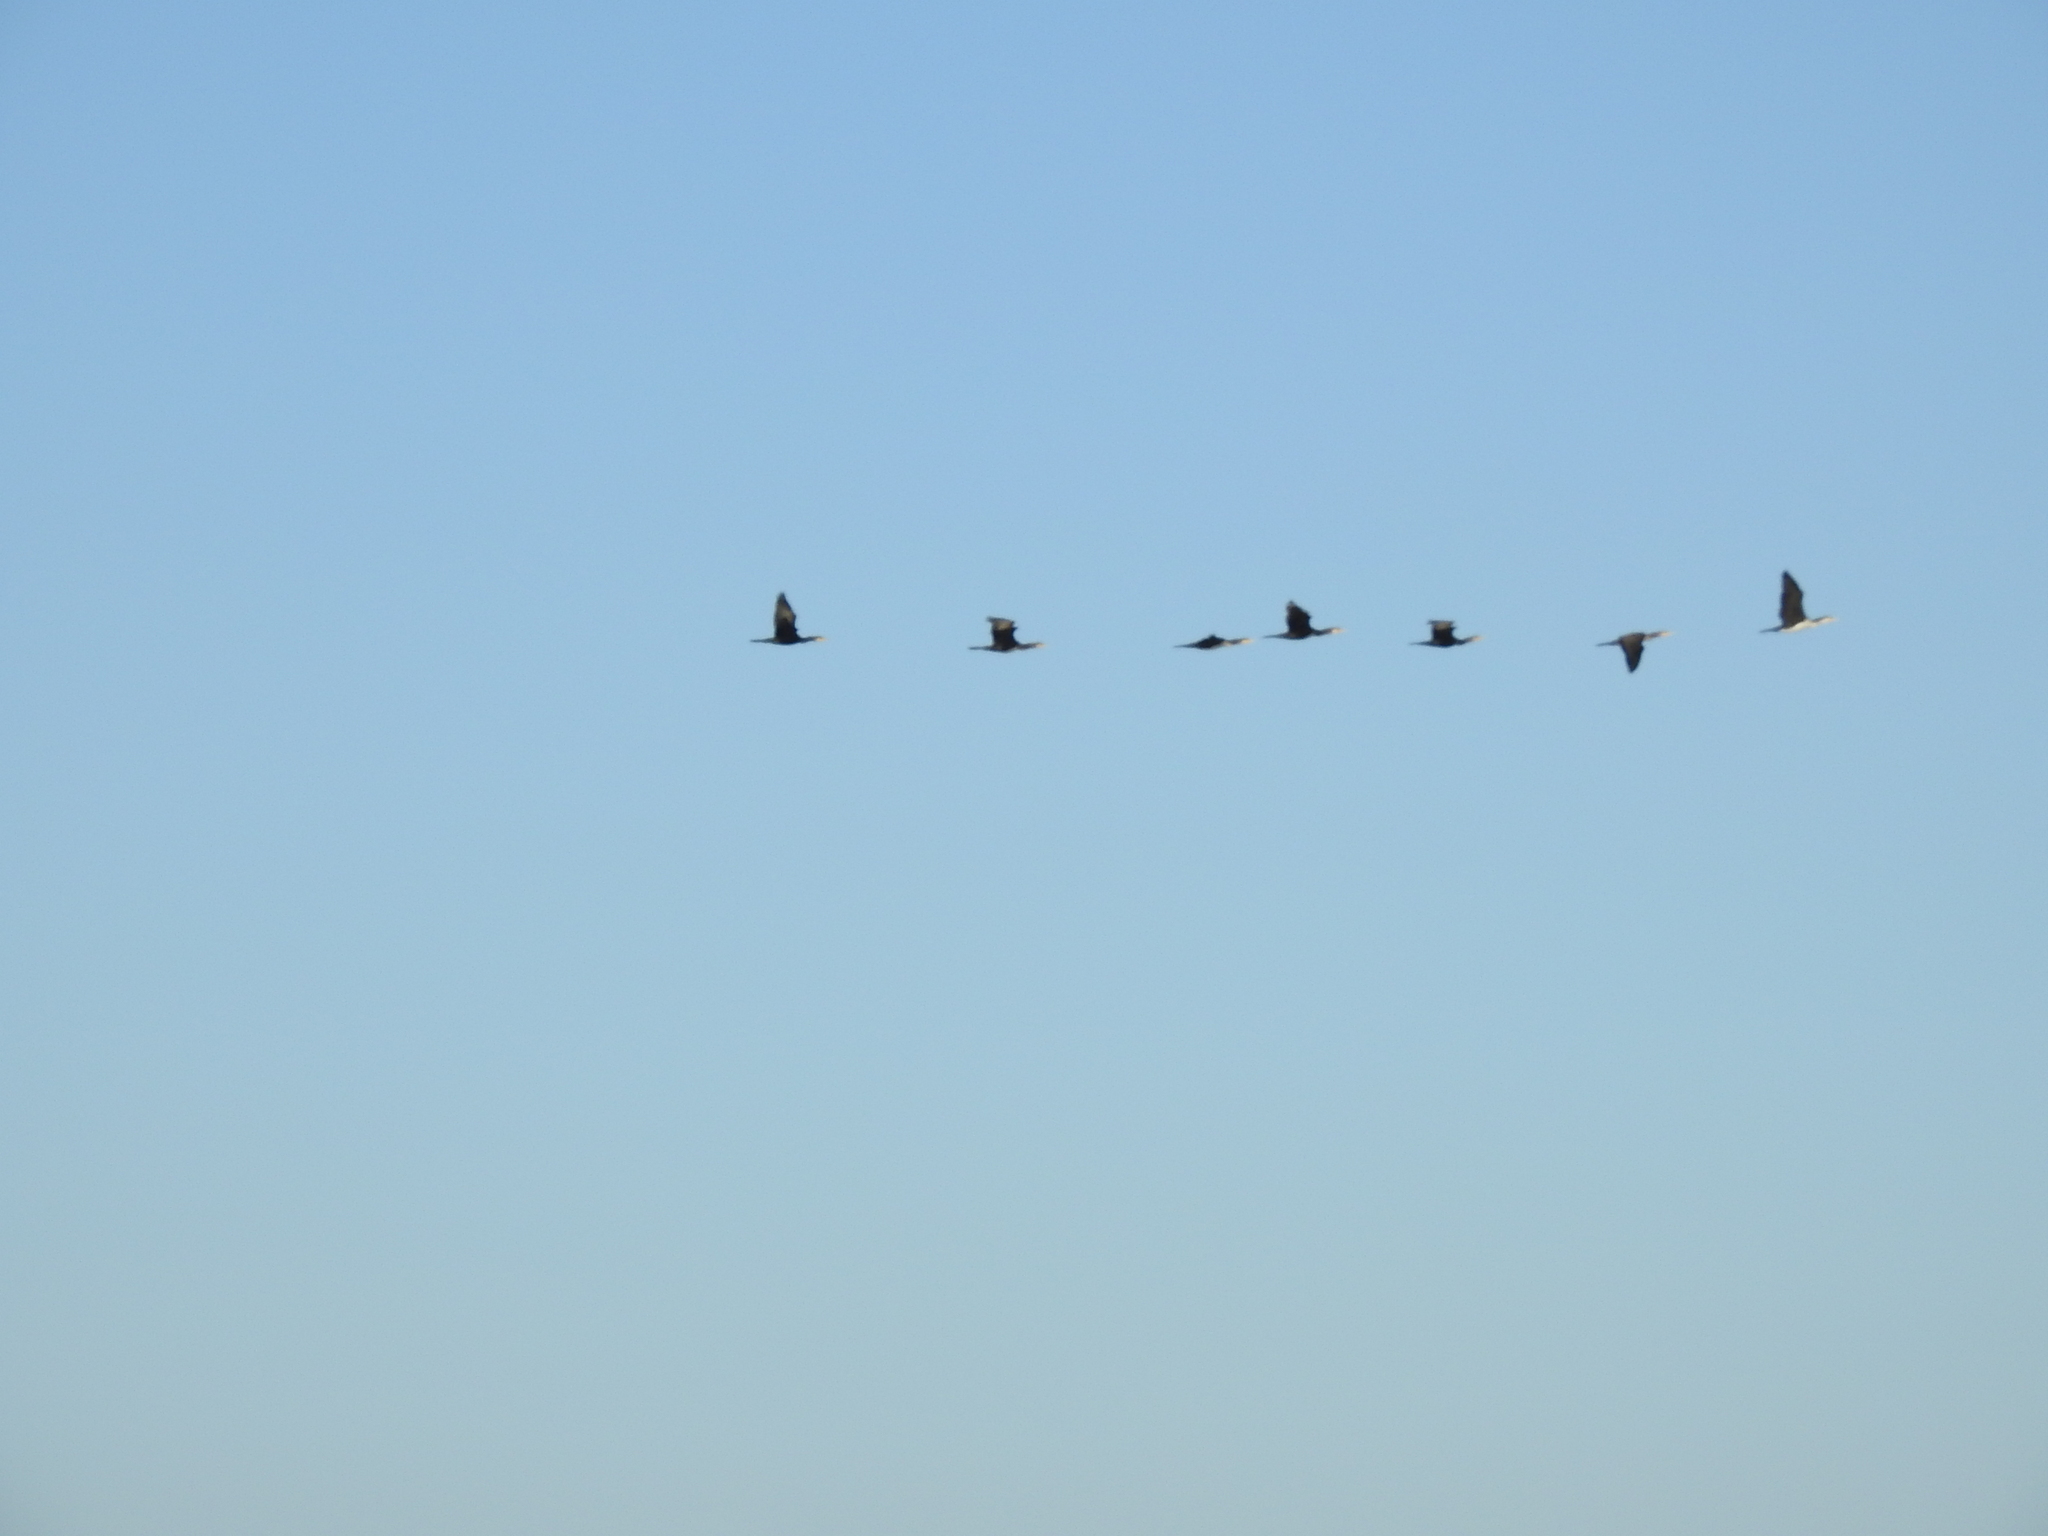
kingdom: Animalia
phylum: Chordata
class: Aves
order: Suliformes
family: Phalacrocoracidae
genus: Phalacrocorax
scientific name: Phalacrocorax carbo
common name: Great cormorant
